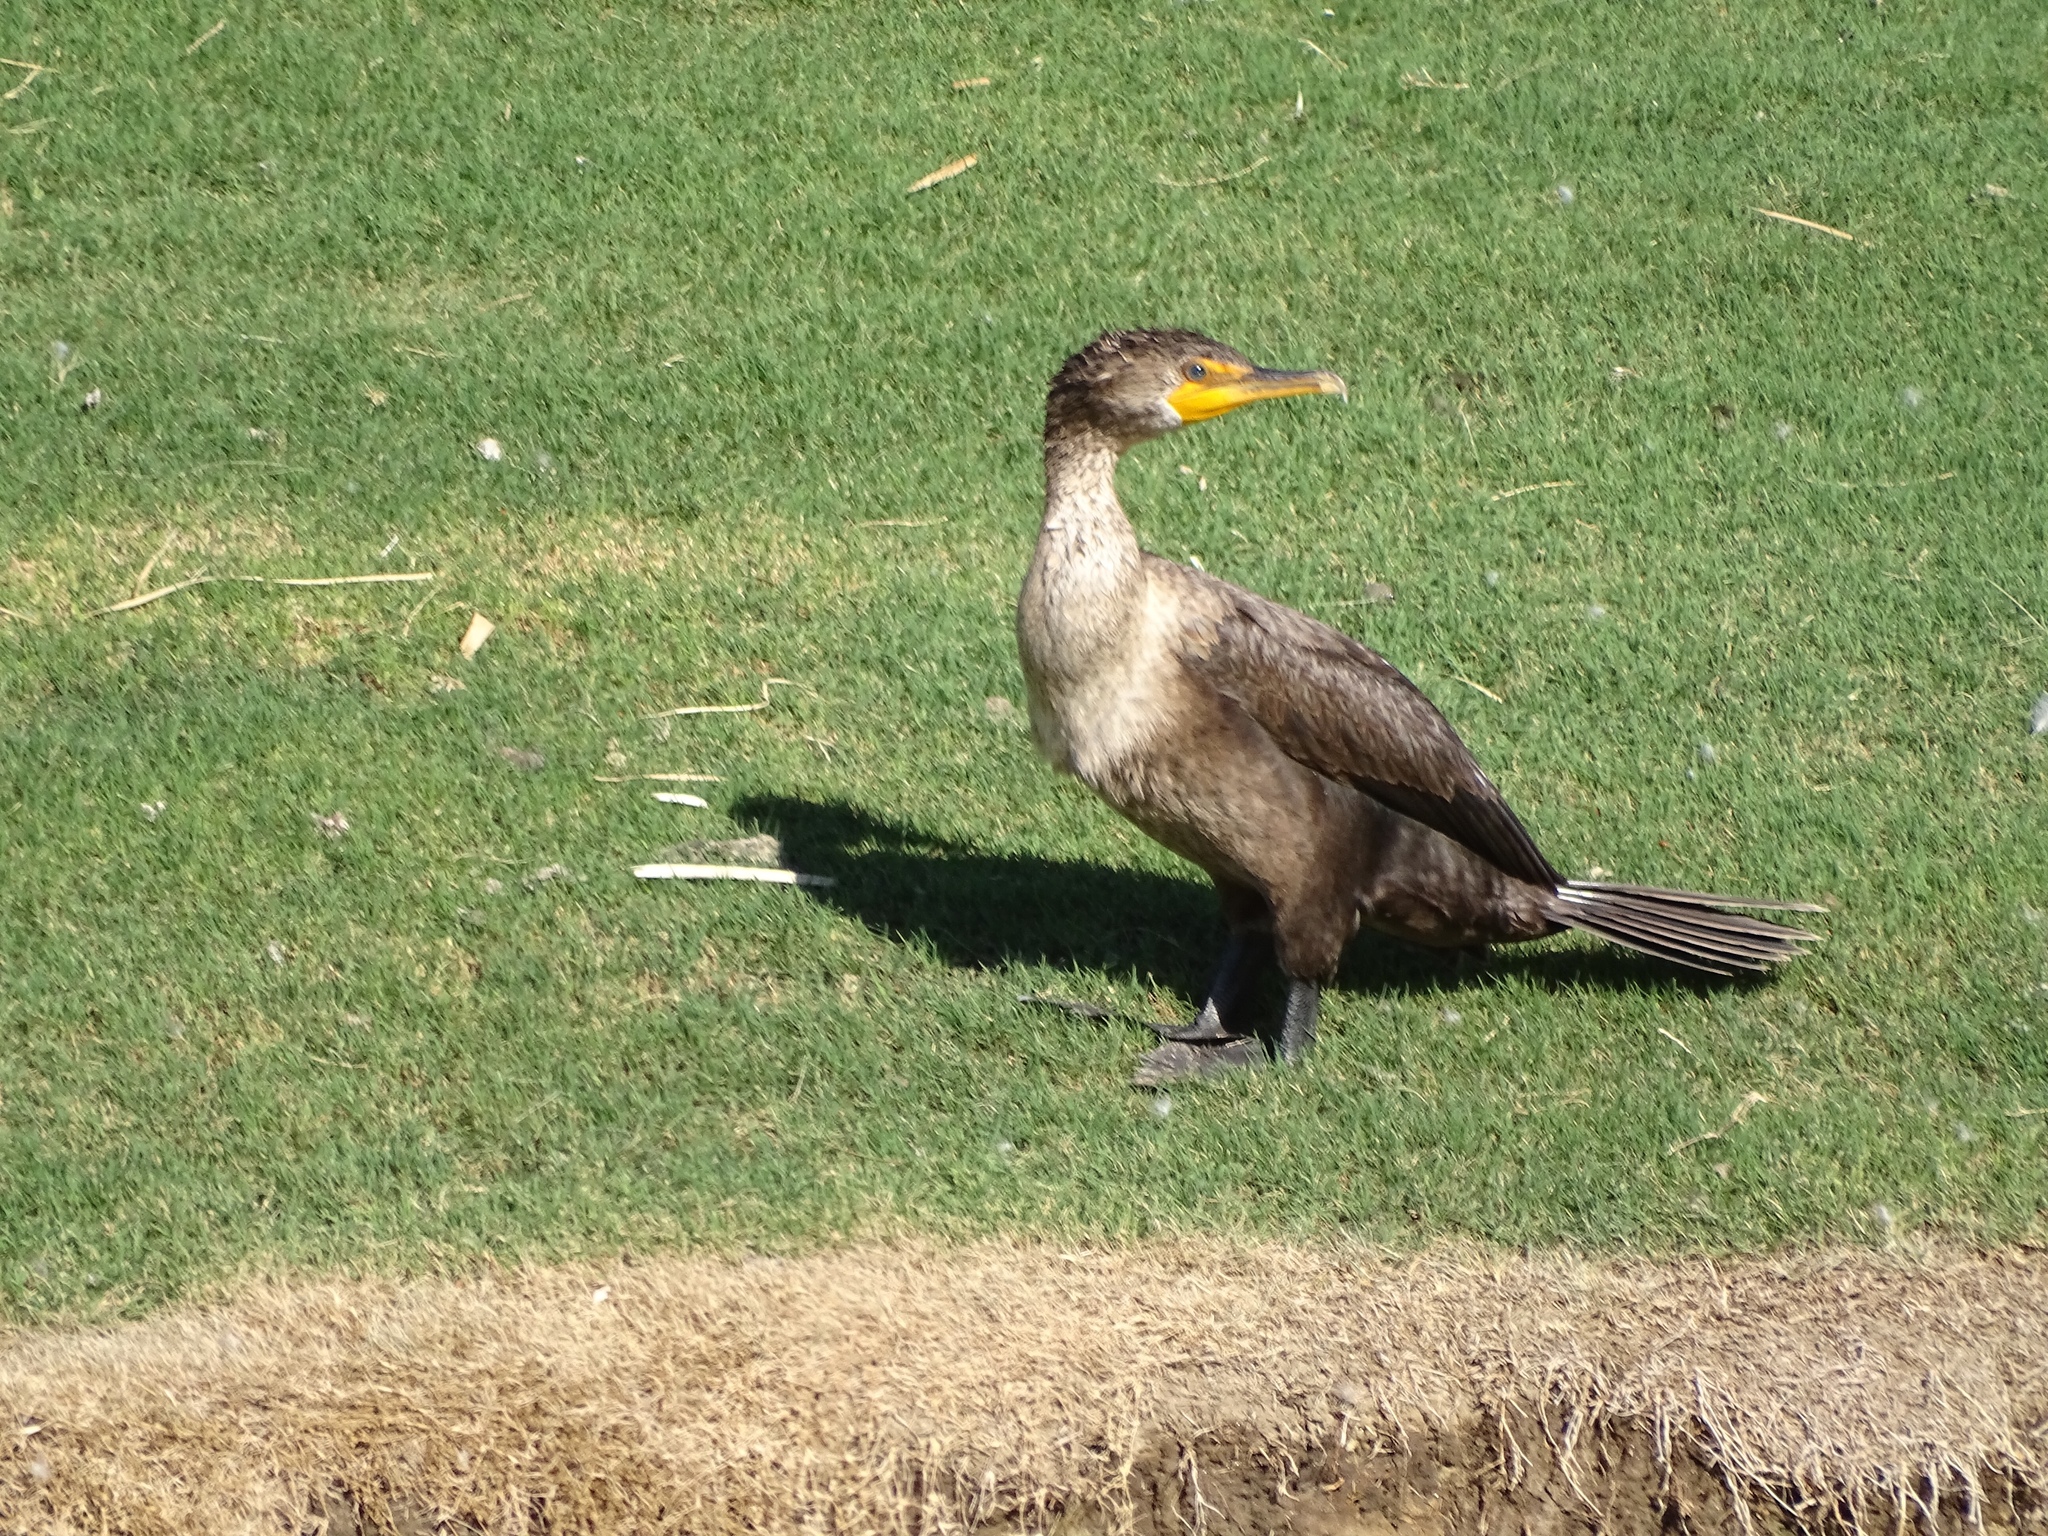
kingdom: Animalia
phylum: Chordata
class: Aves
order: Suliformes
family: Phalacrocoracidae
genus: Phalacrocorax
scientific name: Phalacrocorax auritus
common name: Double-crested cormorant
